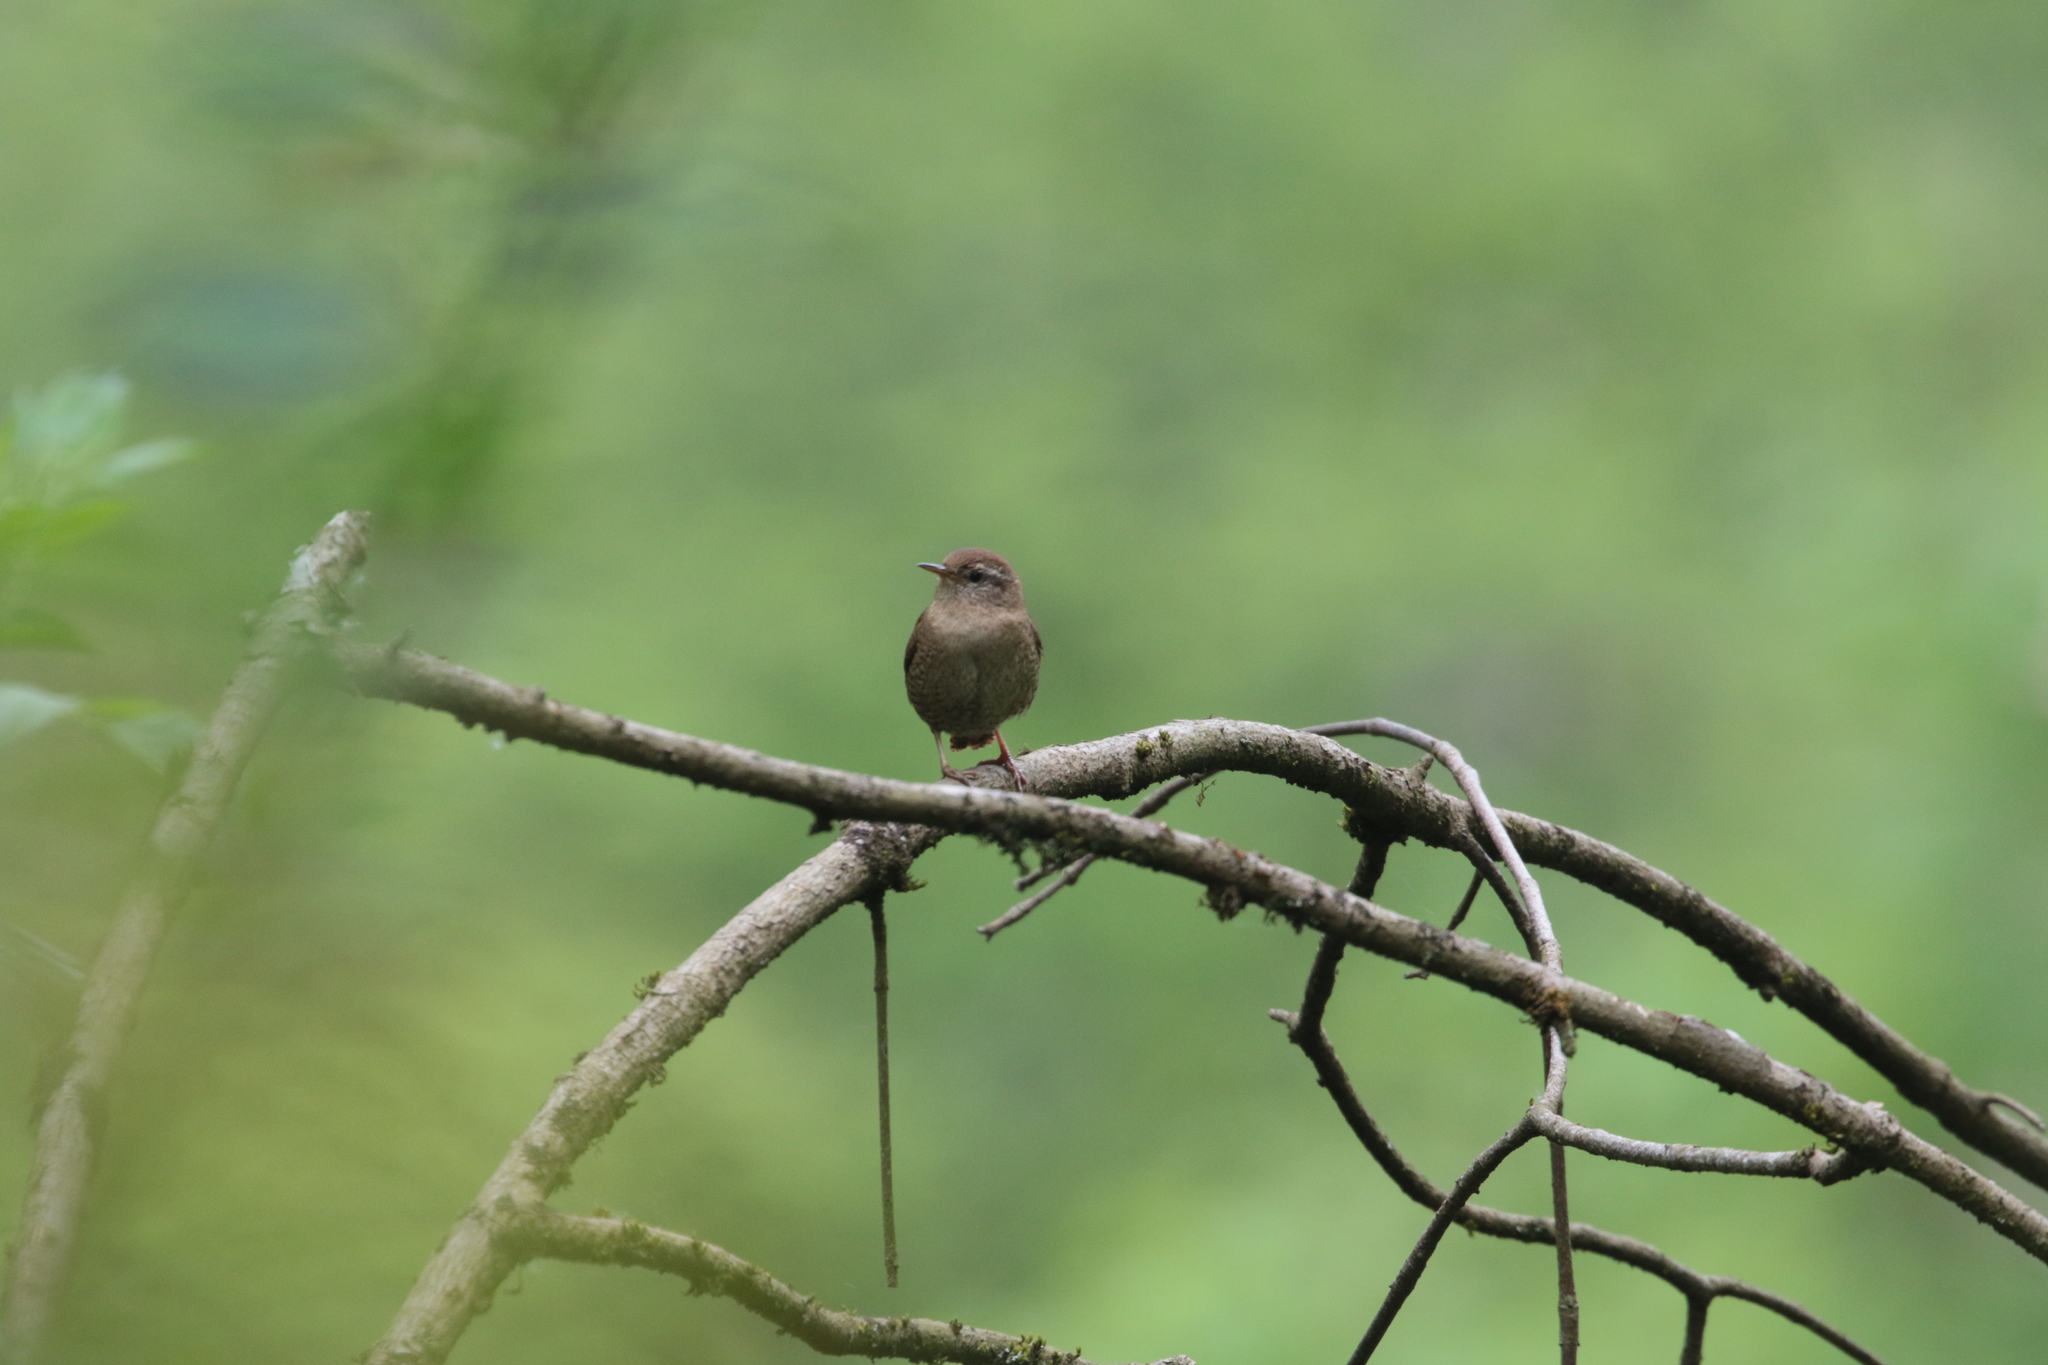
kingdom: Animalia
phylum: Chordata
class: Aves
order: Passeriformes
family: Troglodytidae
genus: Troglodytes
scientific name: Troglodytes troglodytes
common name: Eurasian wren
